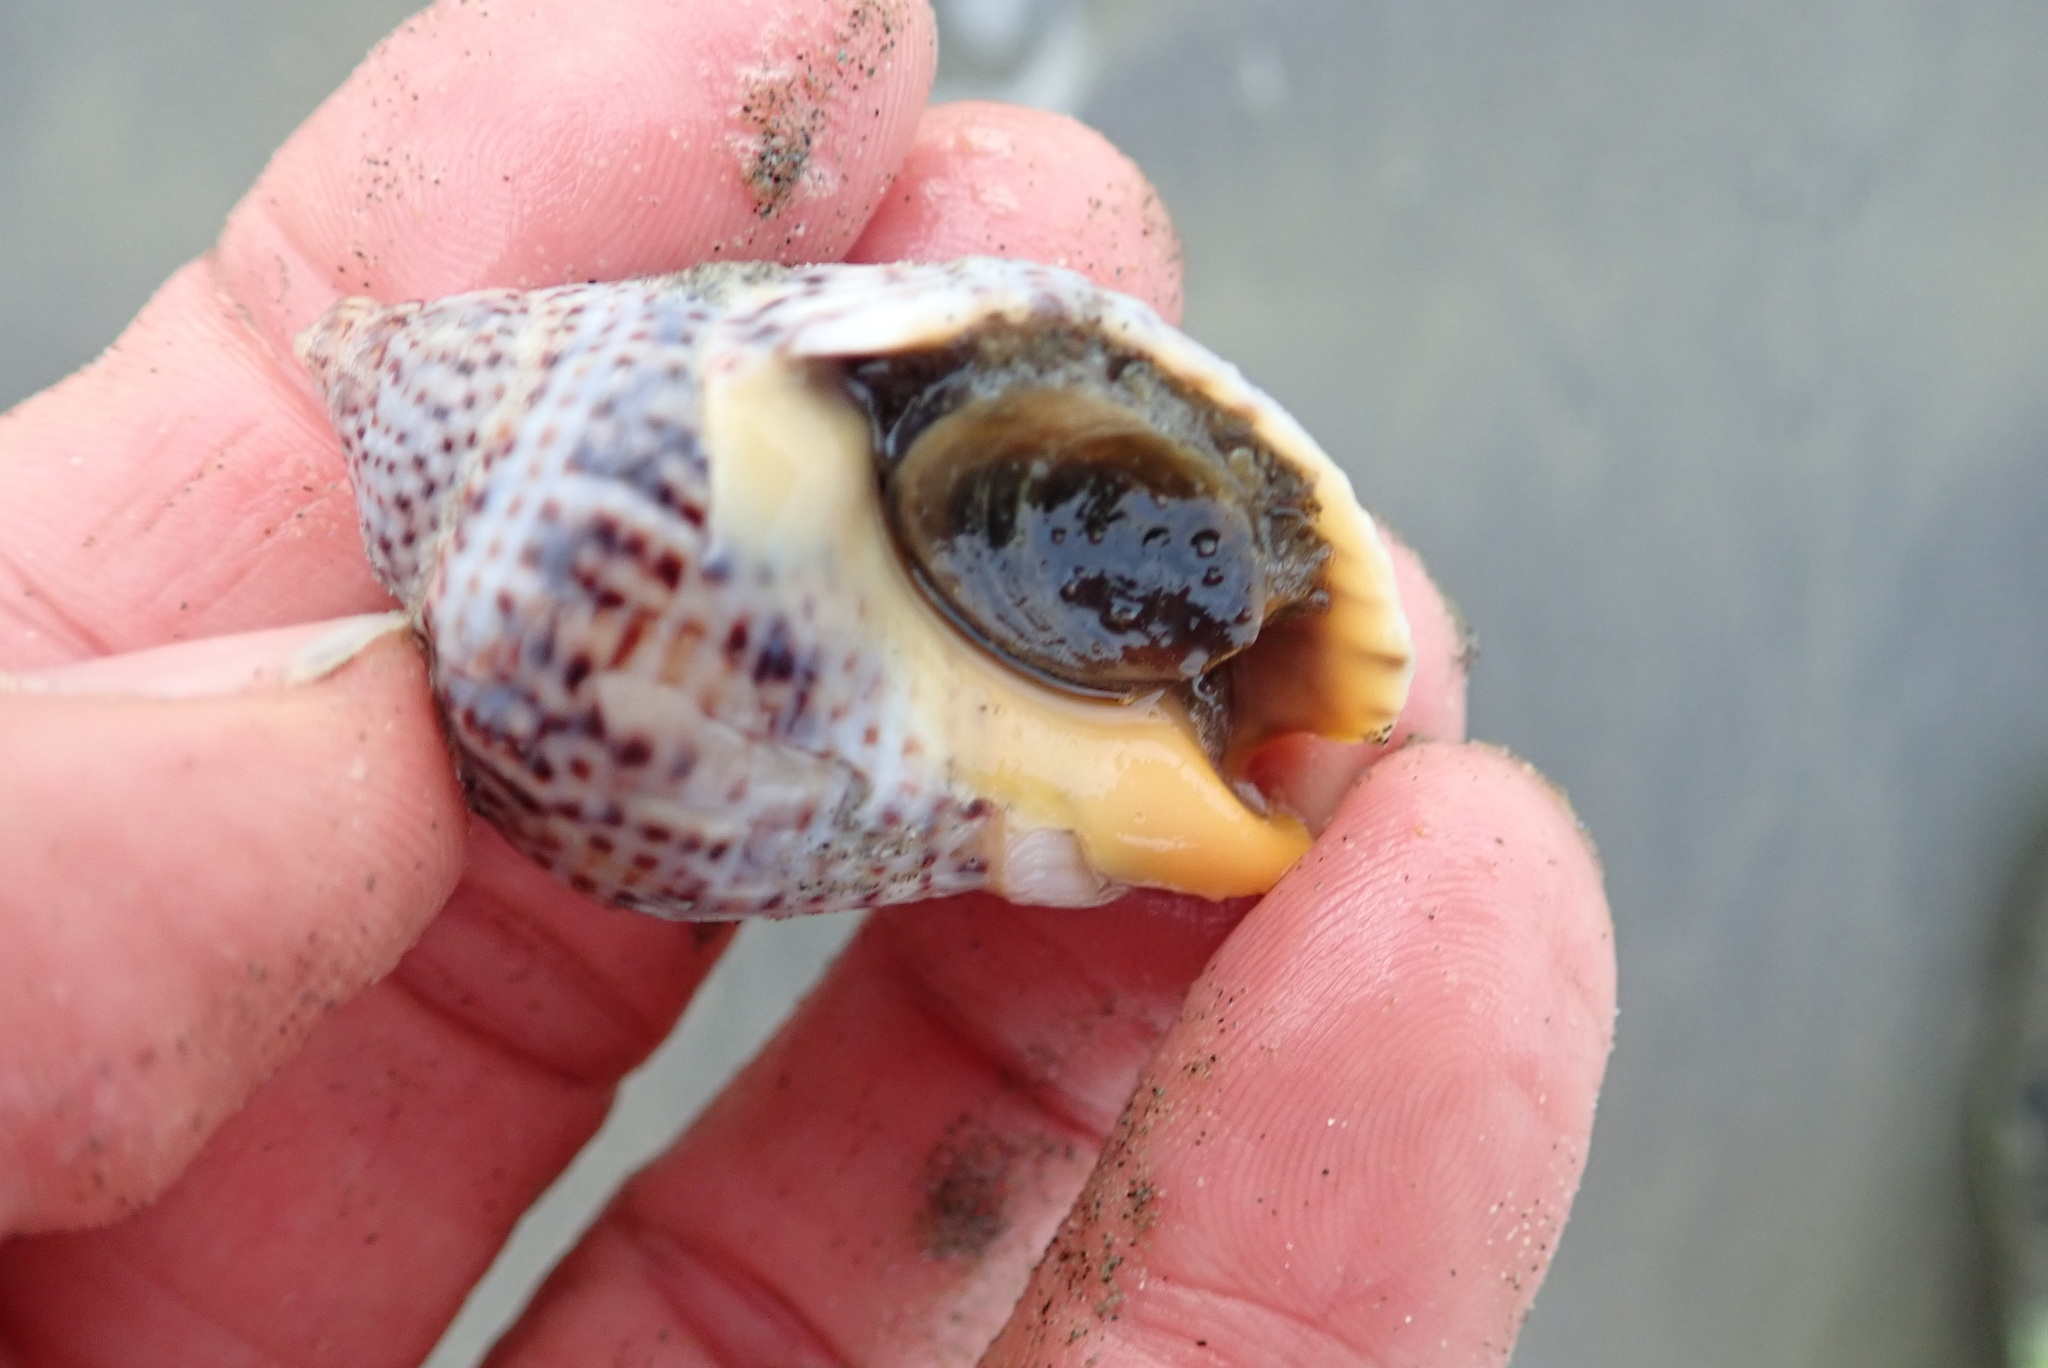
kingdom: Animalia
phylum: Mollusca
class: Gastropoda
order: Neogastropoda
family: Cominellidae
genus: Cominella
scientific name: Cominella adspersa
